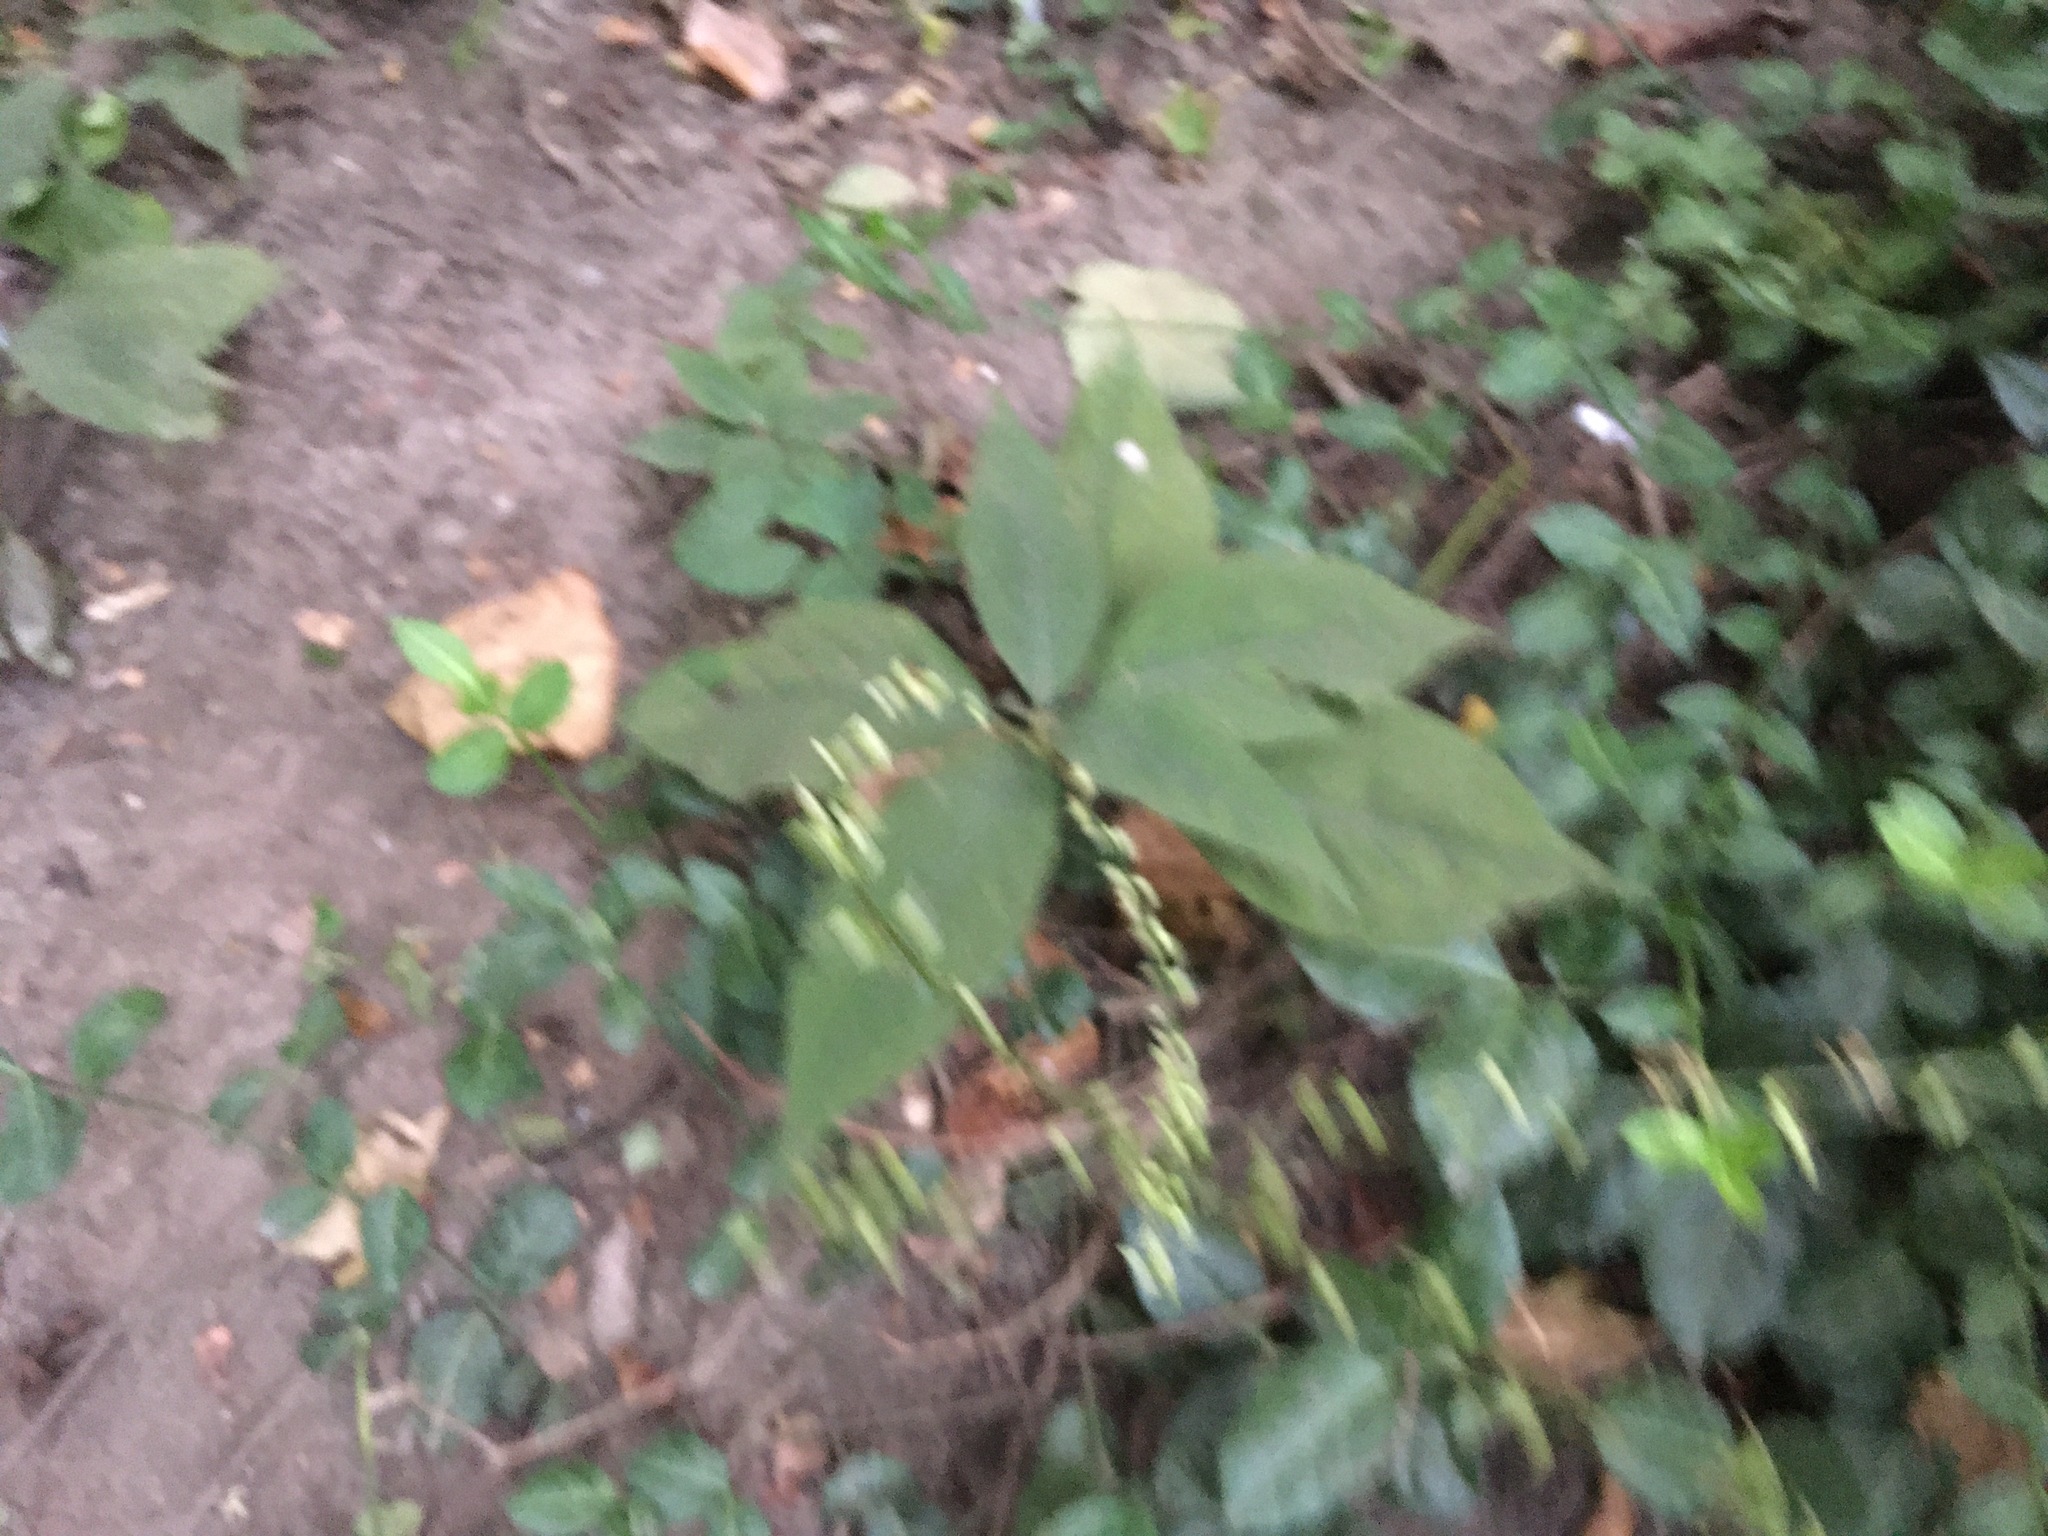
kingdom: Plantae
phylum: Tracheophyta
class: Magnoliopsida
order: Caryophyllales
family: Polygonaceae
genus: Persicaria
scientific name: Persicaria virginiana
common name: Jumpseed
